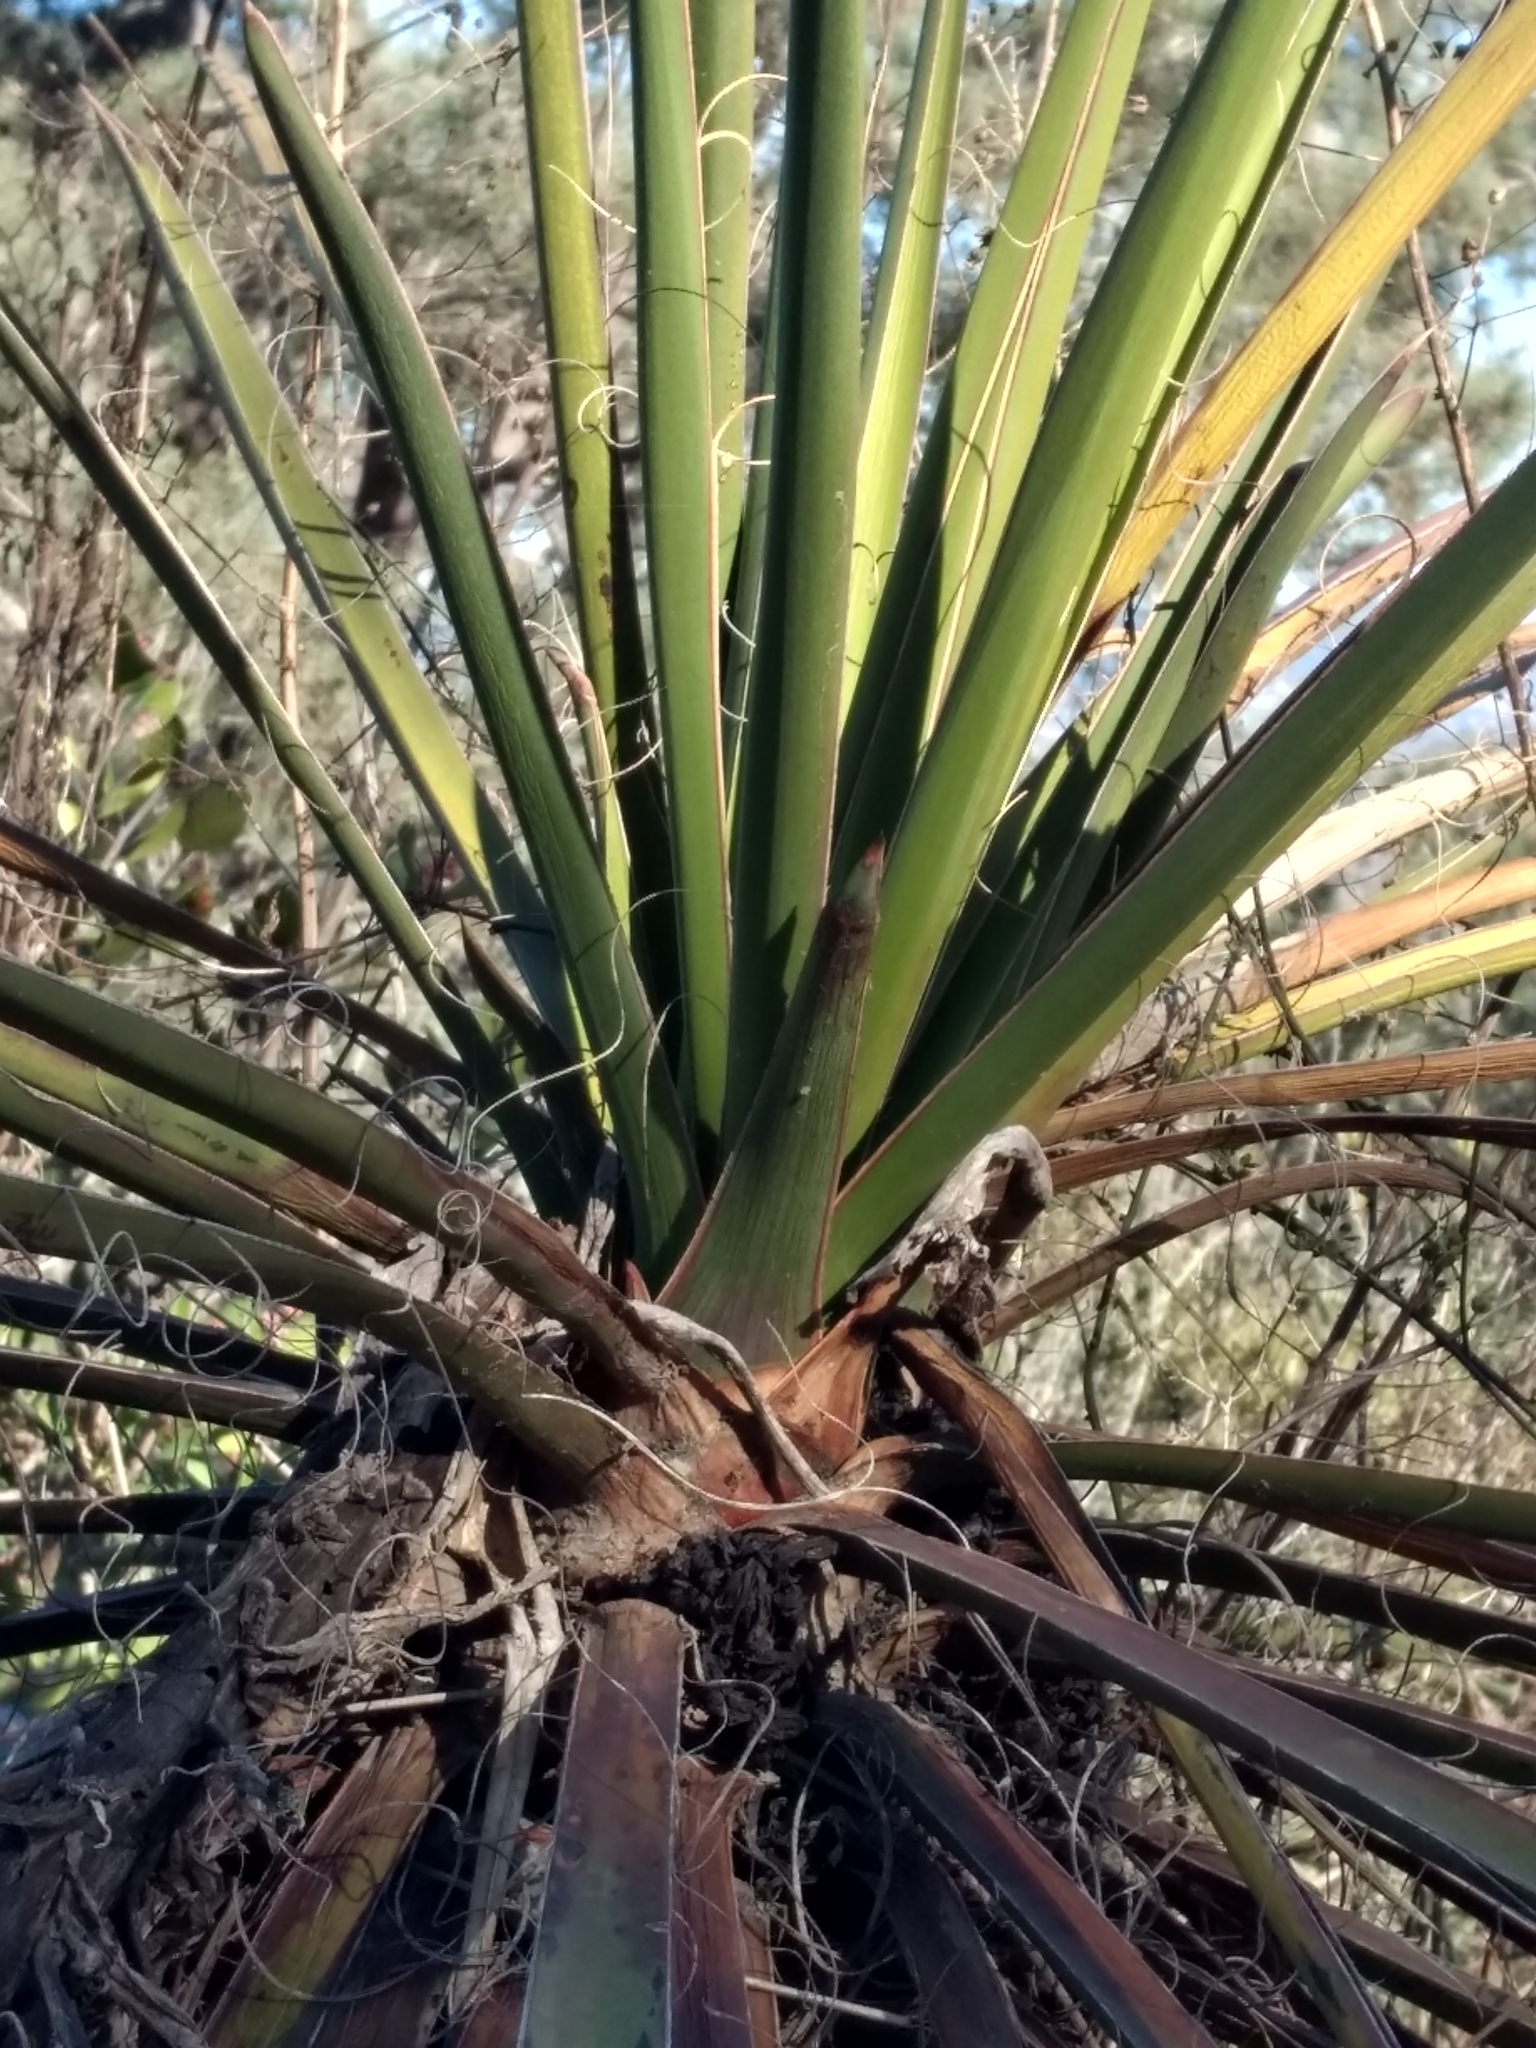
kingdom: Plantae
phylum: Tracheophyta
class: Liliopsida
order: Asparagales
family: Asparagaceae
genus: Yucca
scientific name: Yucca schidigera
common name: Mojave yucca
